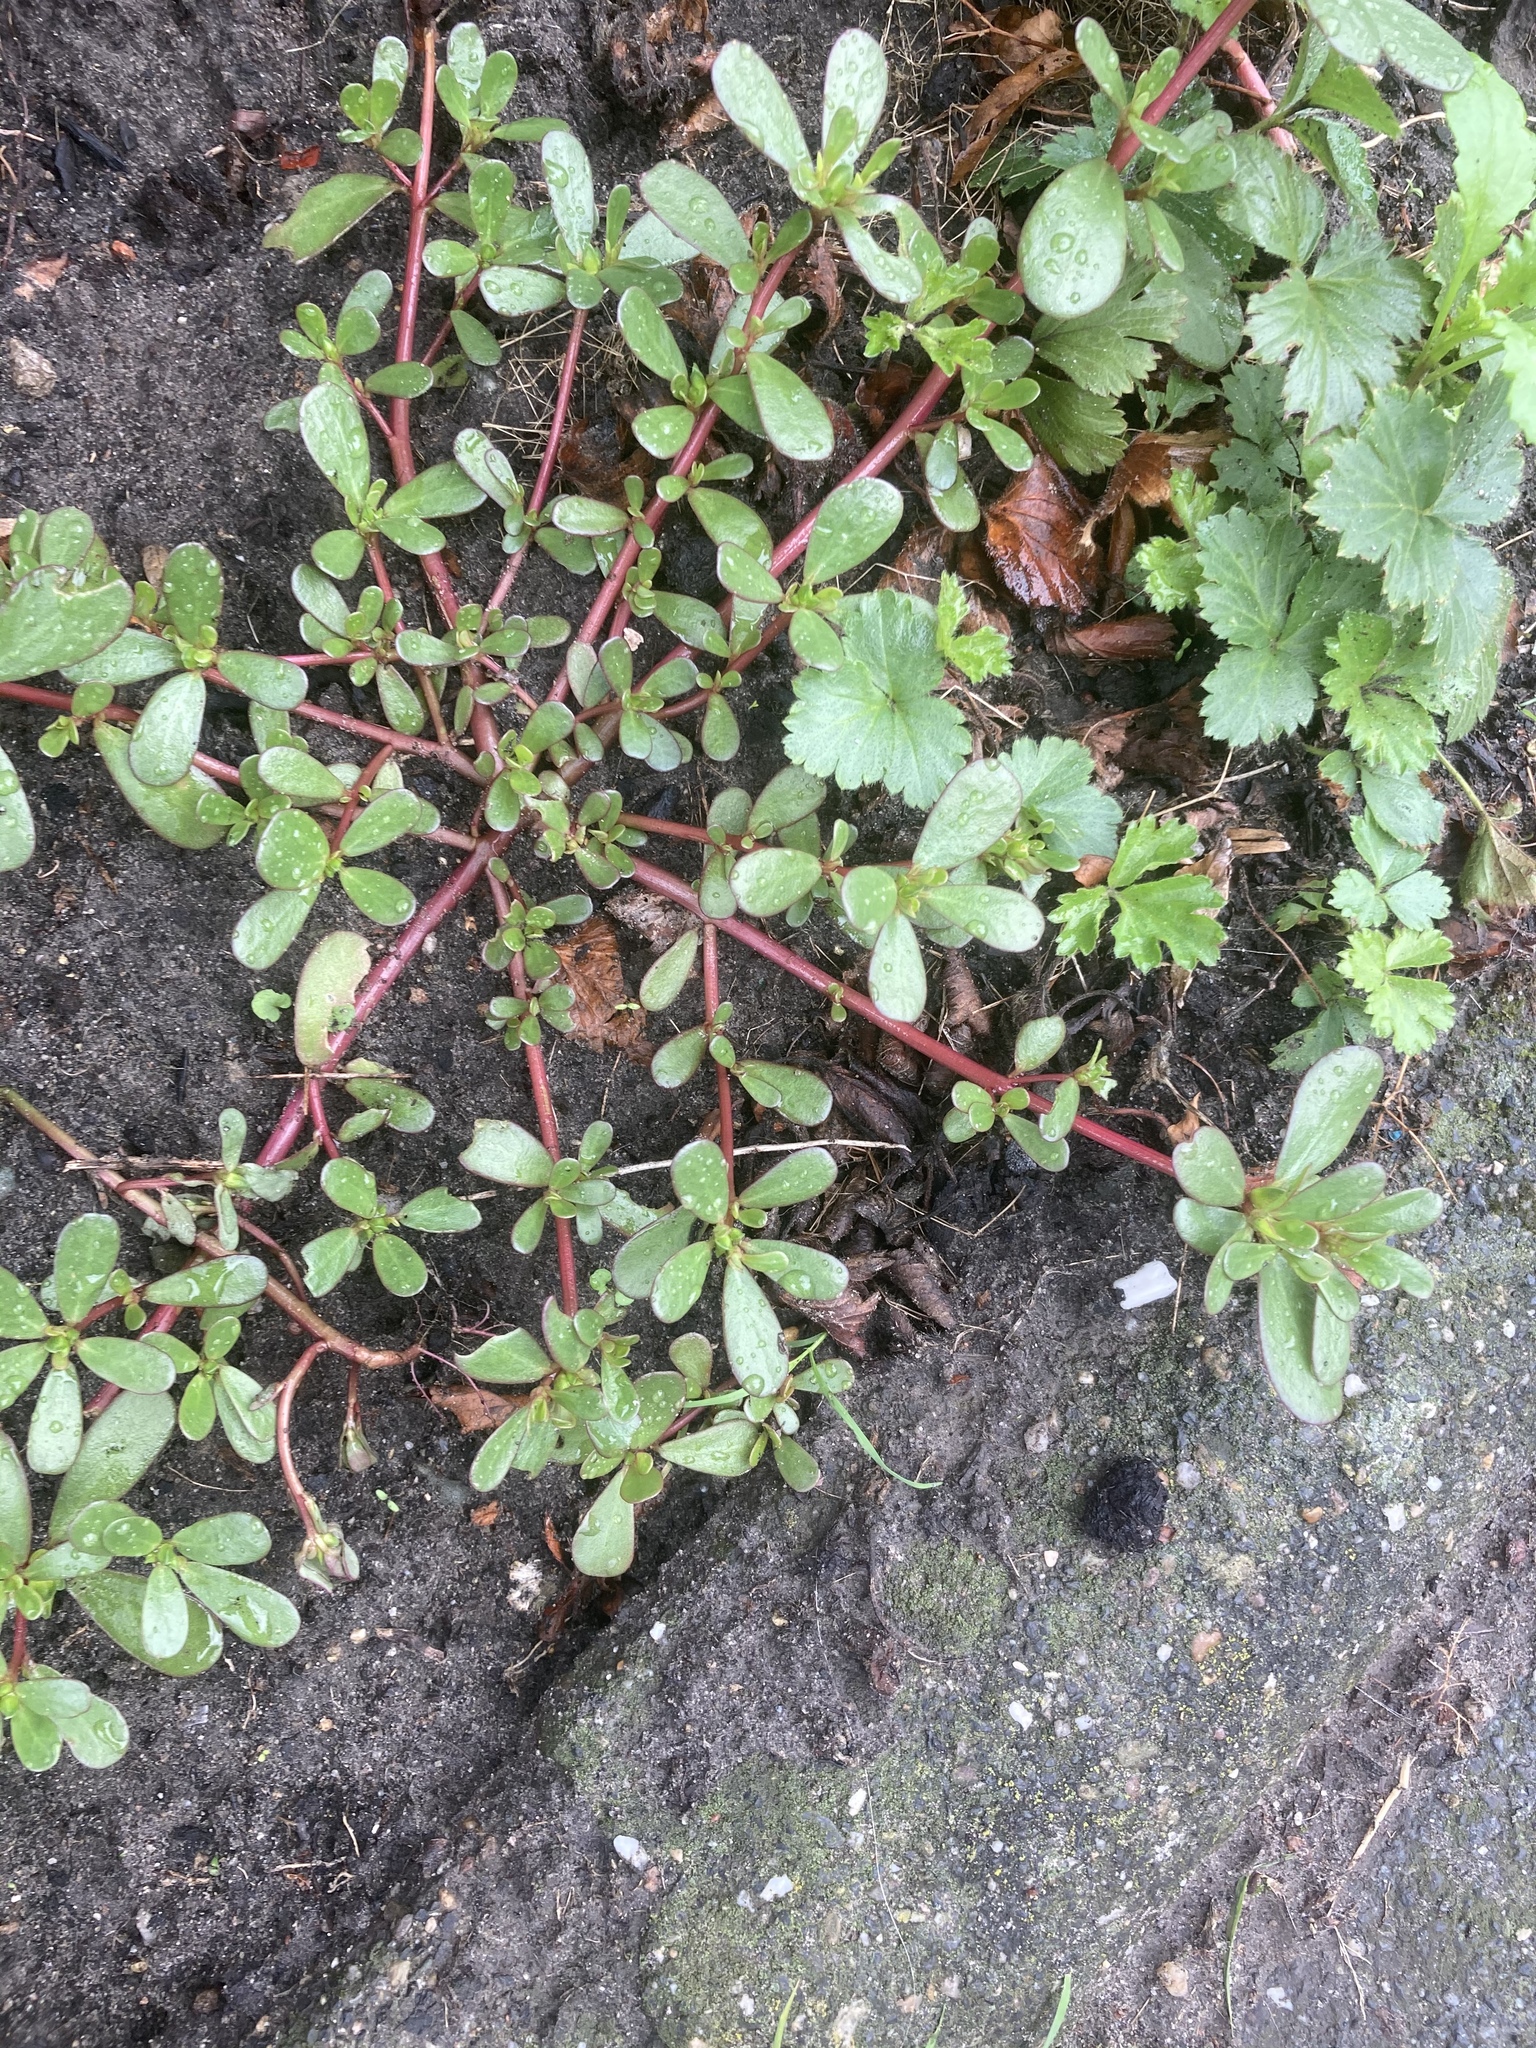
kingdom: Plantae
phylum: Tracheophyta
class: Magnoliopsida
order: Caryophyllales
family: Portulacaceae
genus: Portulaca
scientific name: Portulaca oleracea
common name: Common purslane
